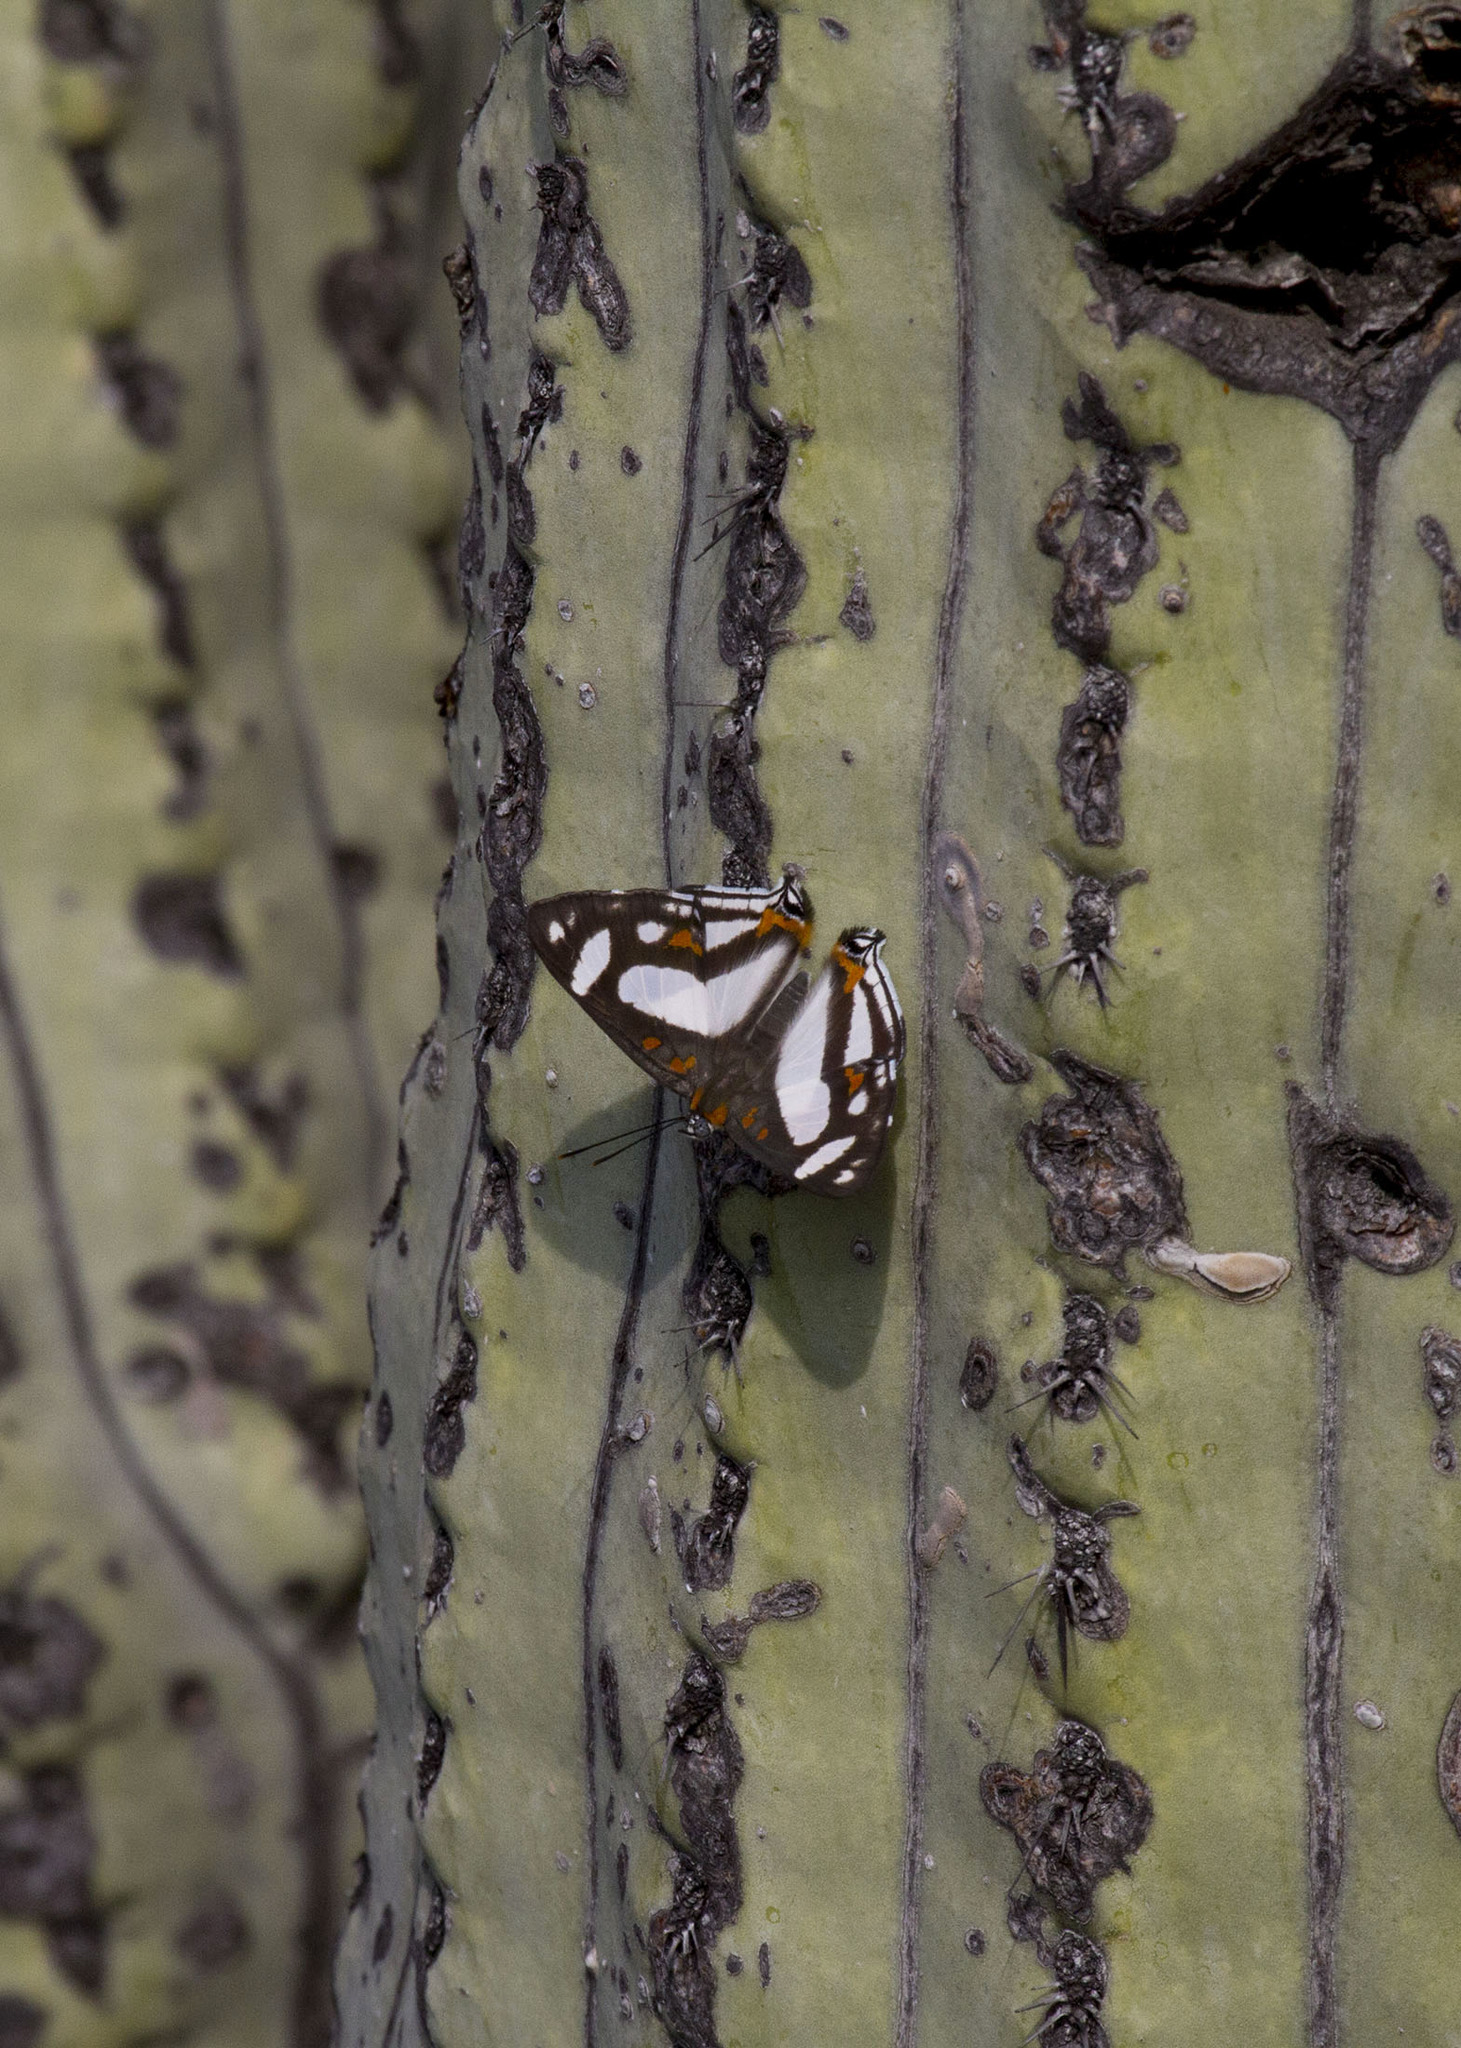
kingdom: Animalia
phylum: Arthropoda
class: Insecta
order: Lepidoptera
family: Riodinidae
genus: Thisbe
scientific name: Thisbe lycorias
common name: Banner metalmark
